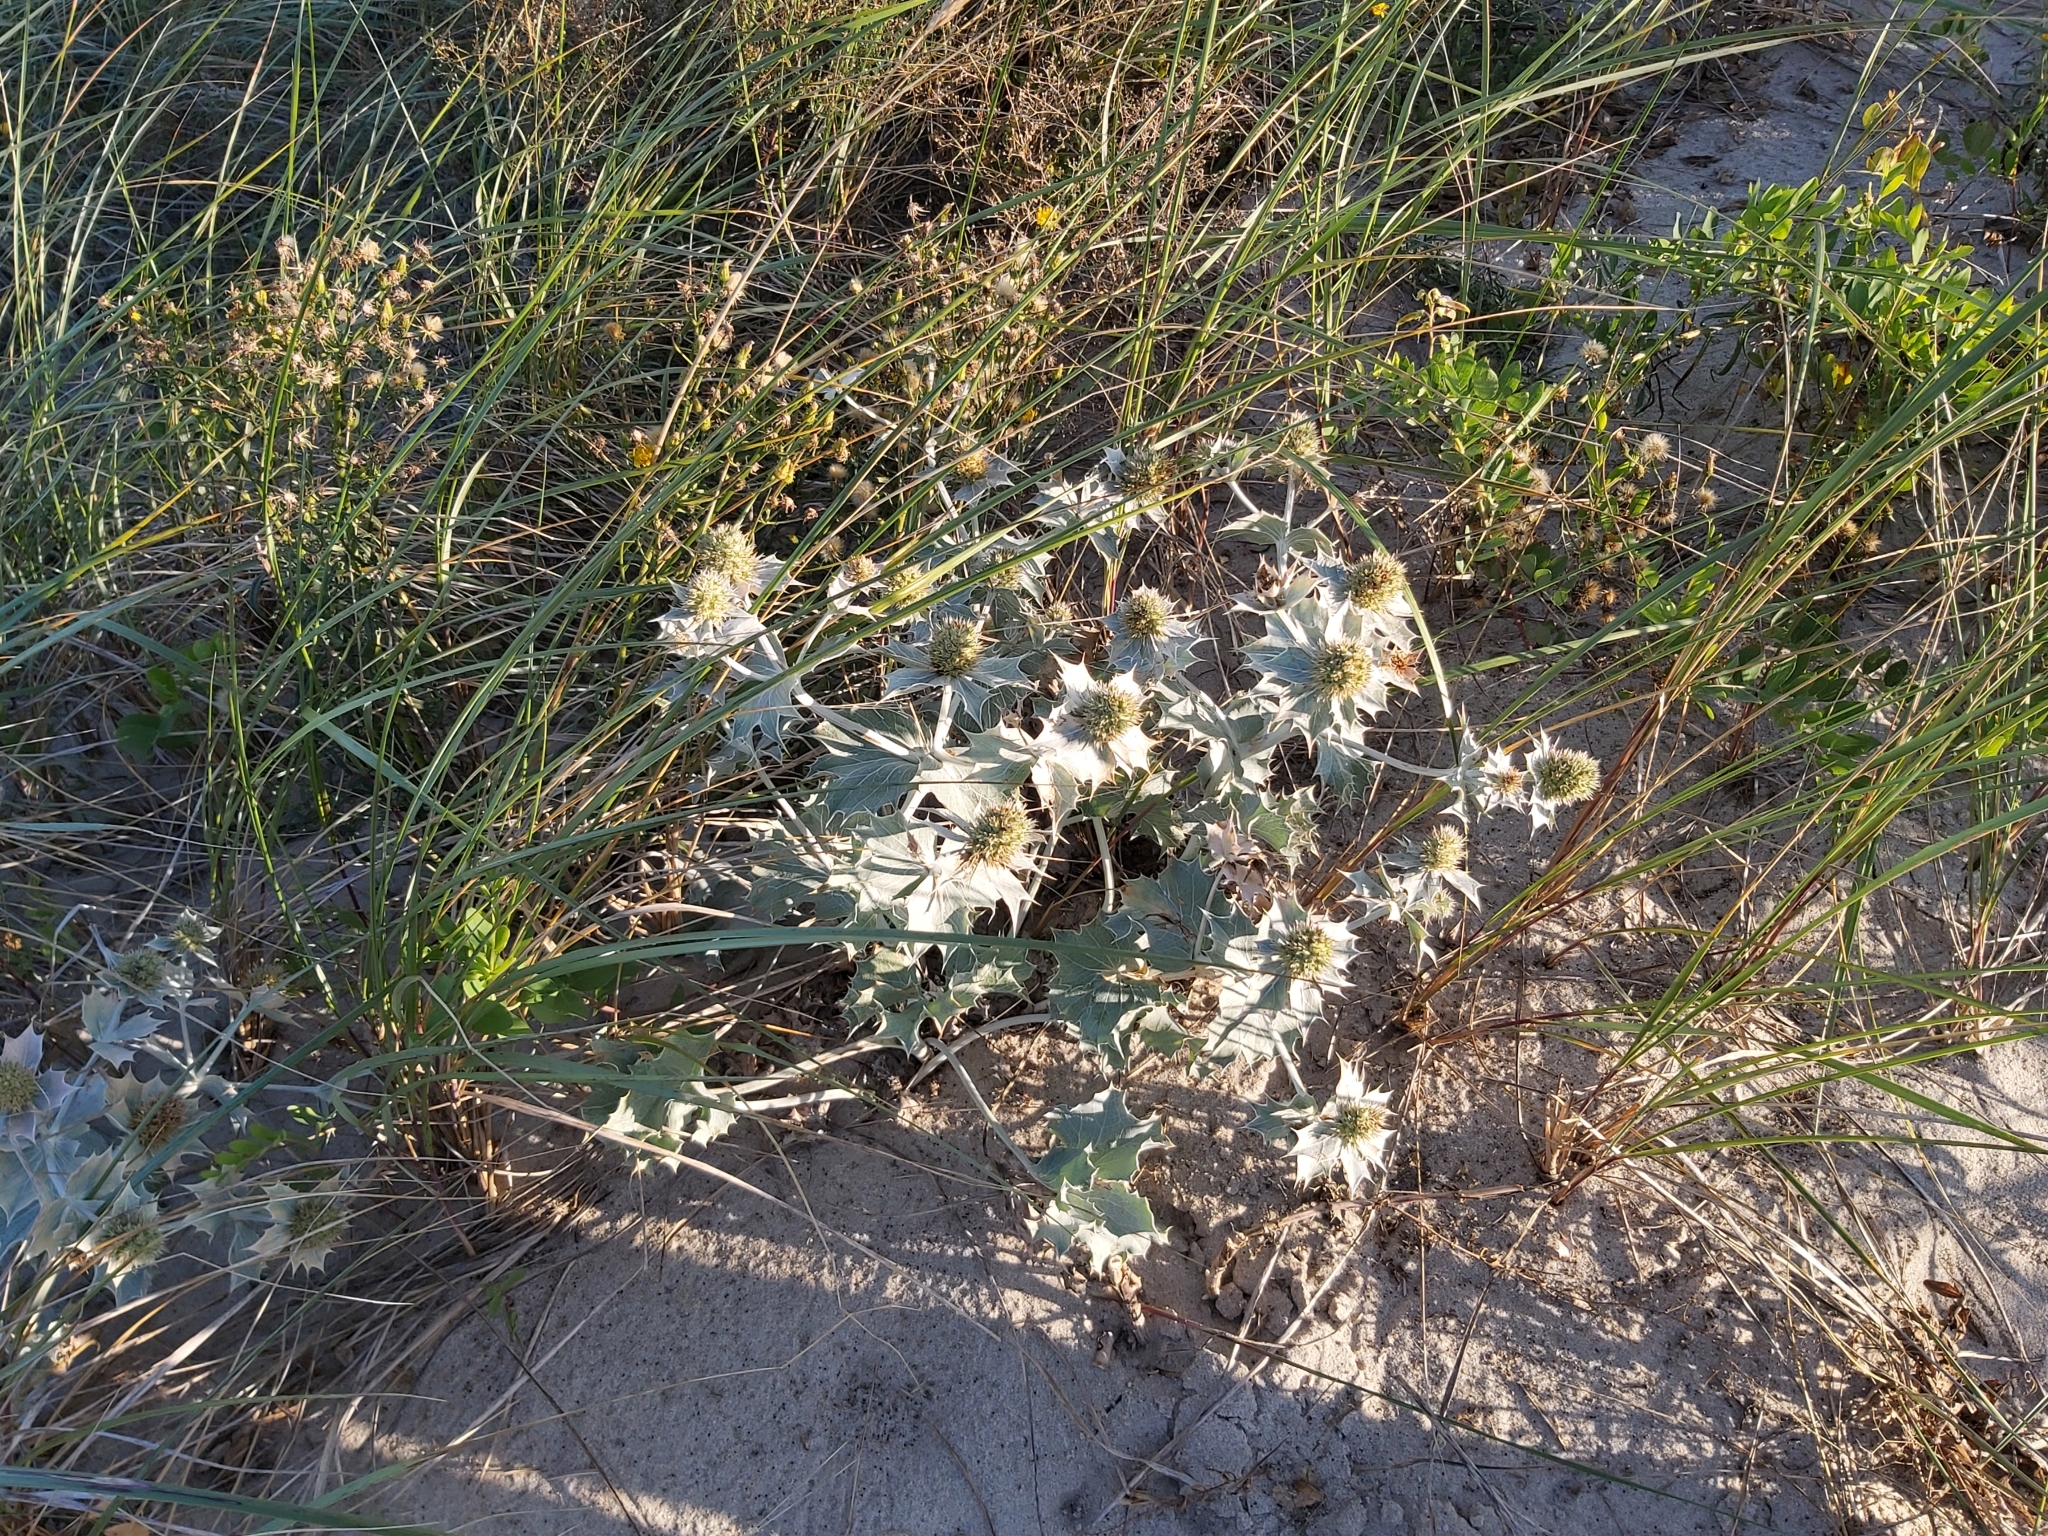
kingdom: Plantae
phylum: Tracheophyta
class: Magnoliopsida
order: Apiales
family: Apiaceae
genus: Eryngium
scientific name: Eryngium maritimum
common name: Sea-holly
